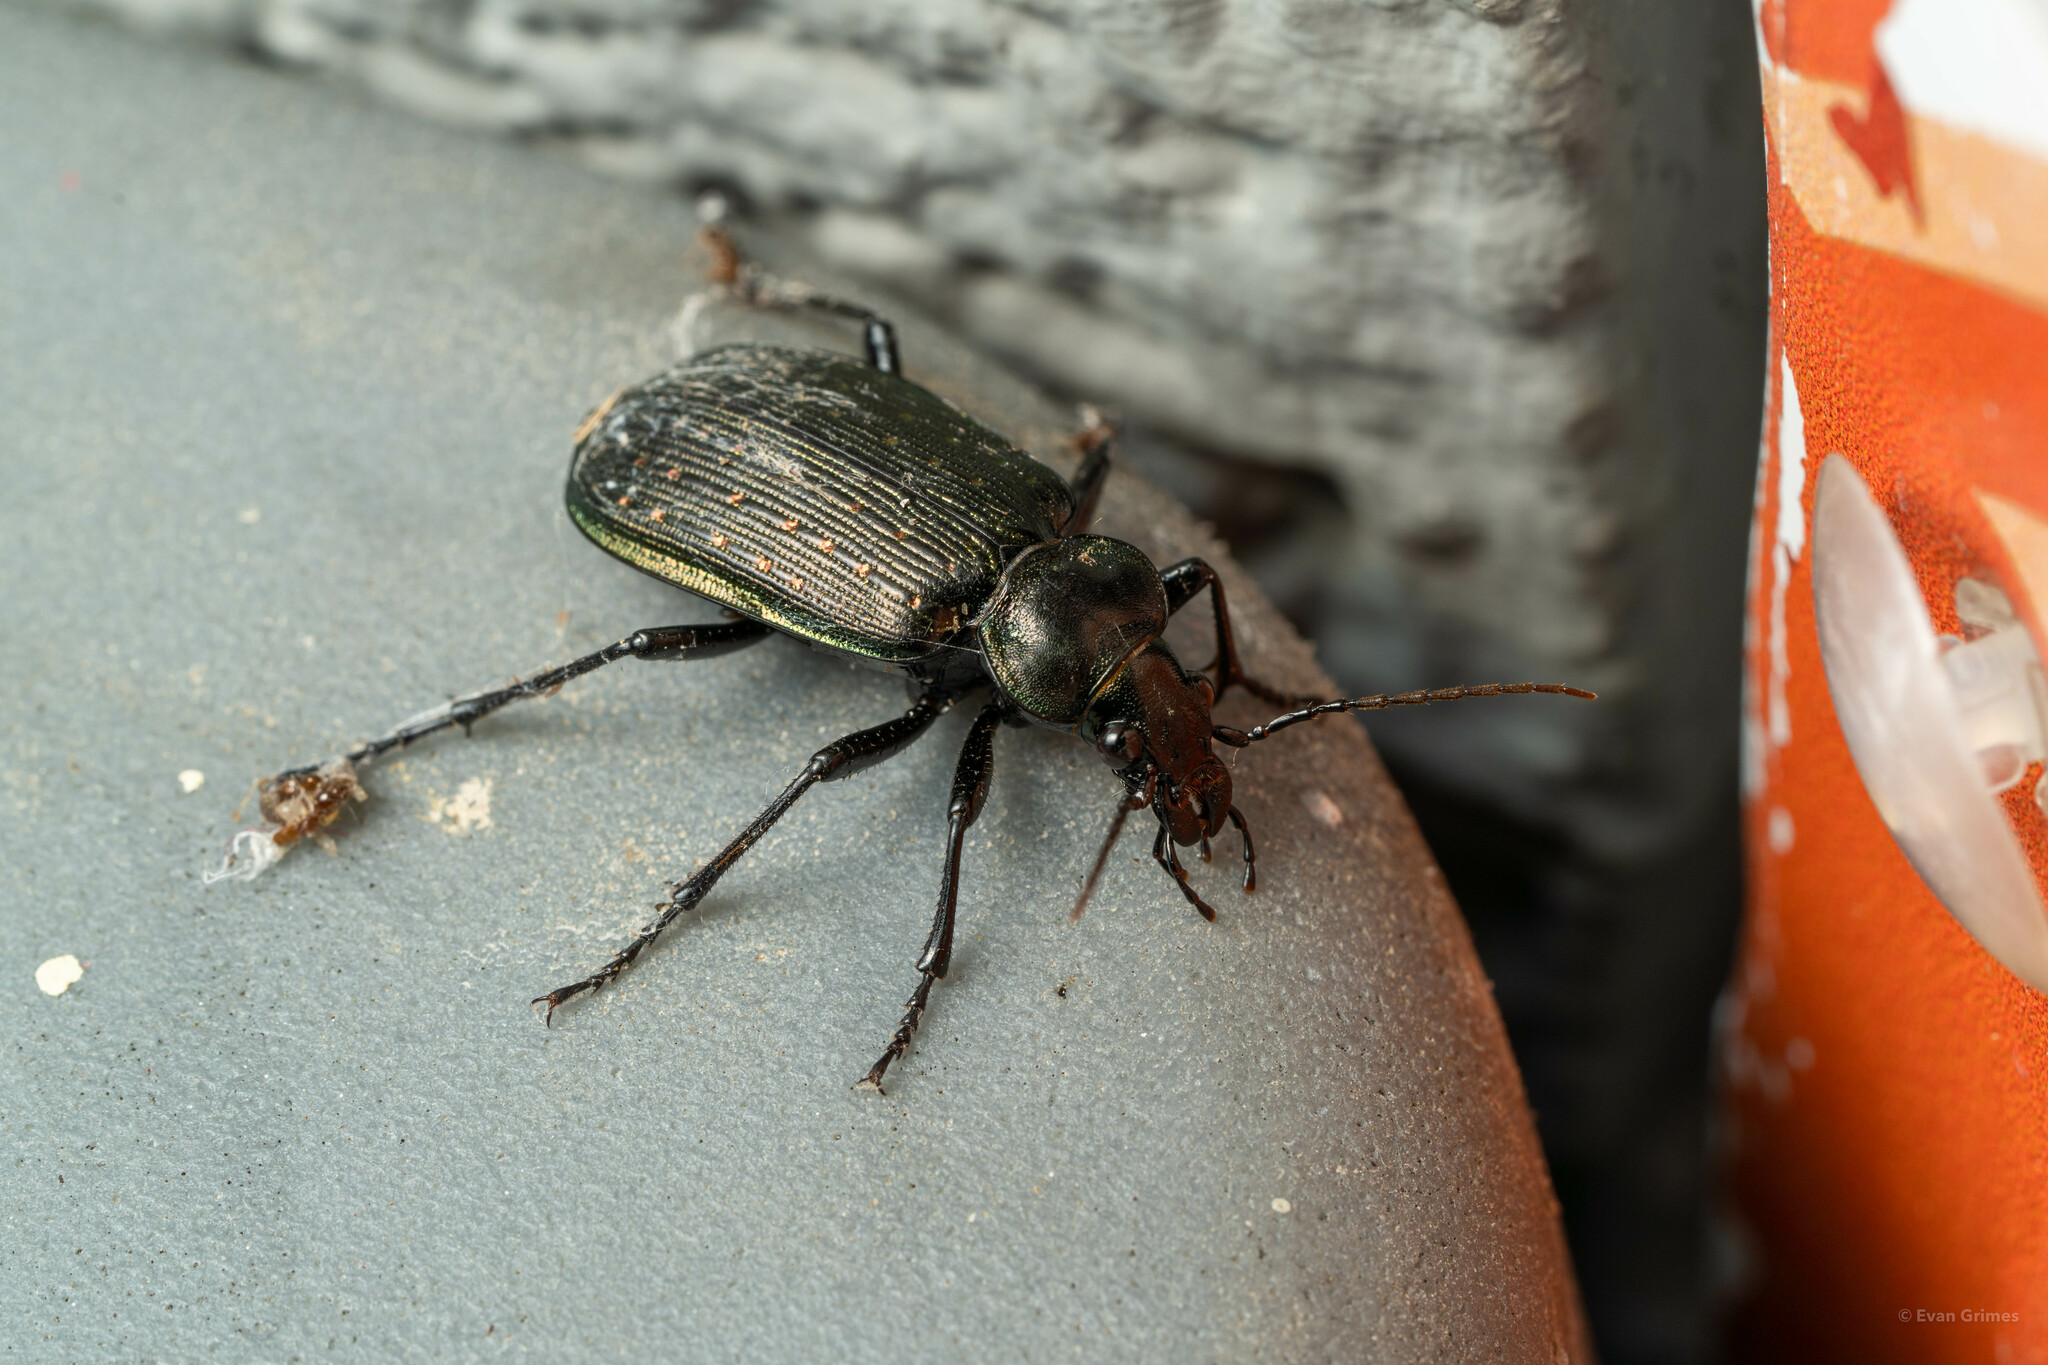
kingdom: Animalia
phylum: Arthropoda
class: Insecta
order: Coleoptera
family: Carabidae
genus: Calosoma
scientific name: Calosoma sayi
